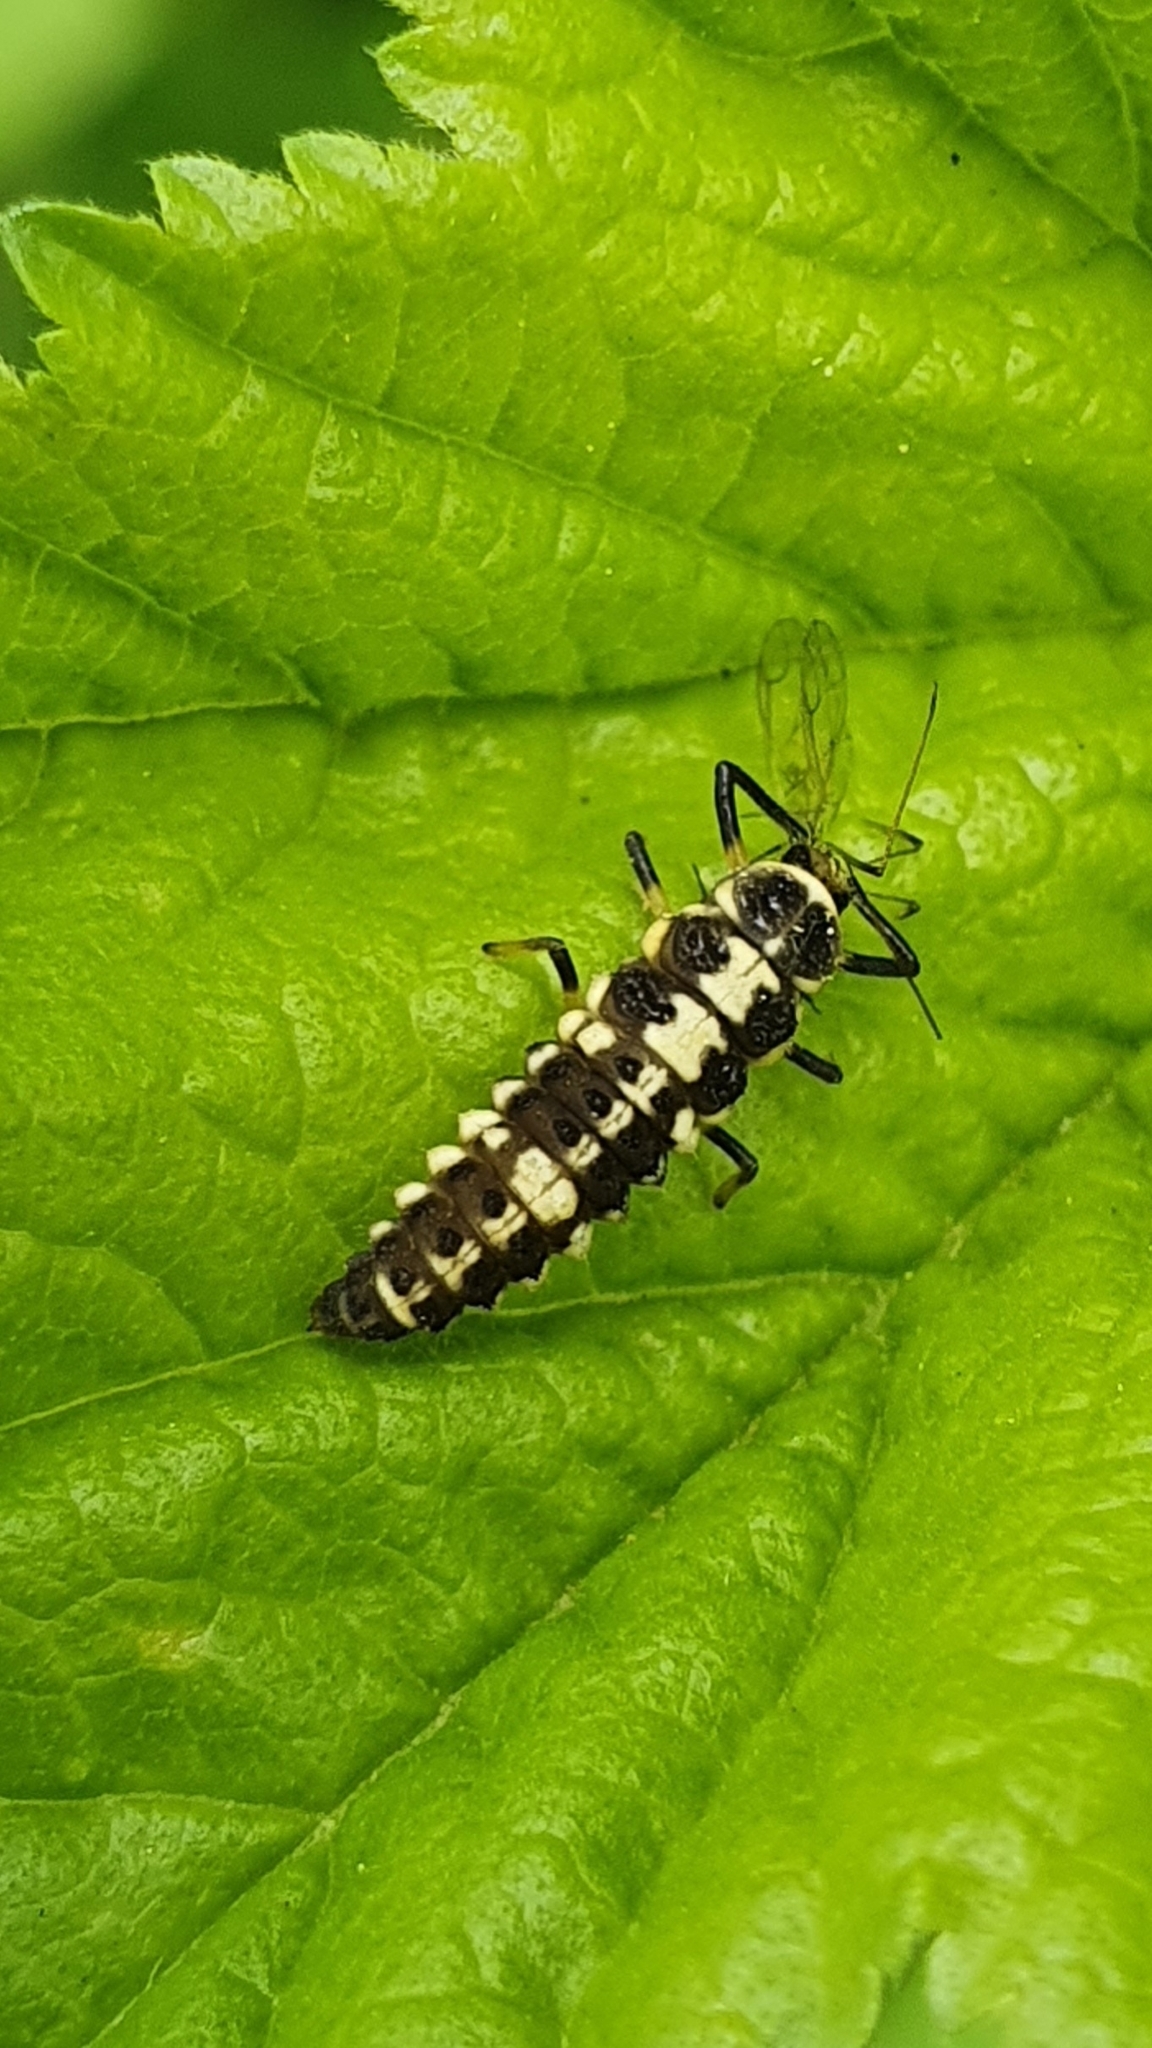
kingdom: Animalia
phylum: Arthropoda
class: Insecta
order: Coleoptera
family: Coccinellidae
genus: Propylaea
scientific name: Propylaea quatuordecimpunctata
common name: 14-spotted ladybird beetle
